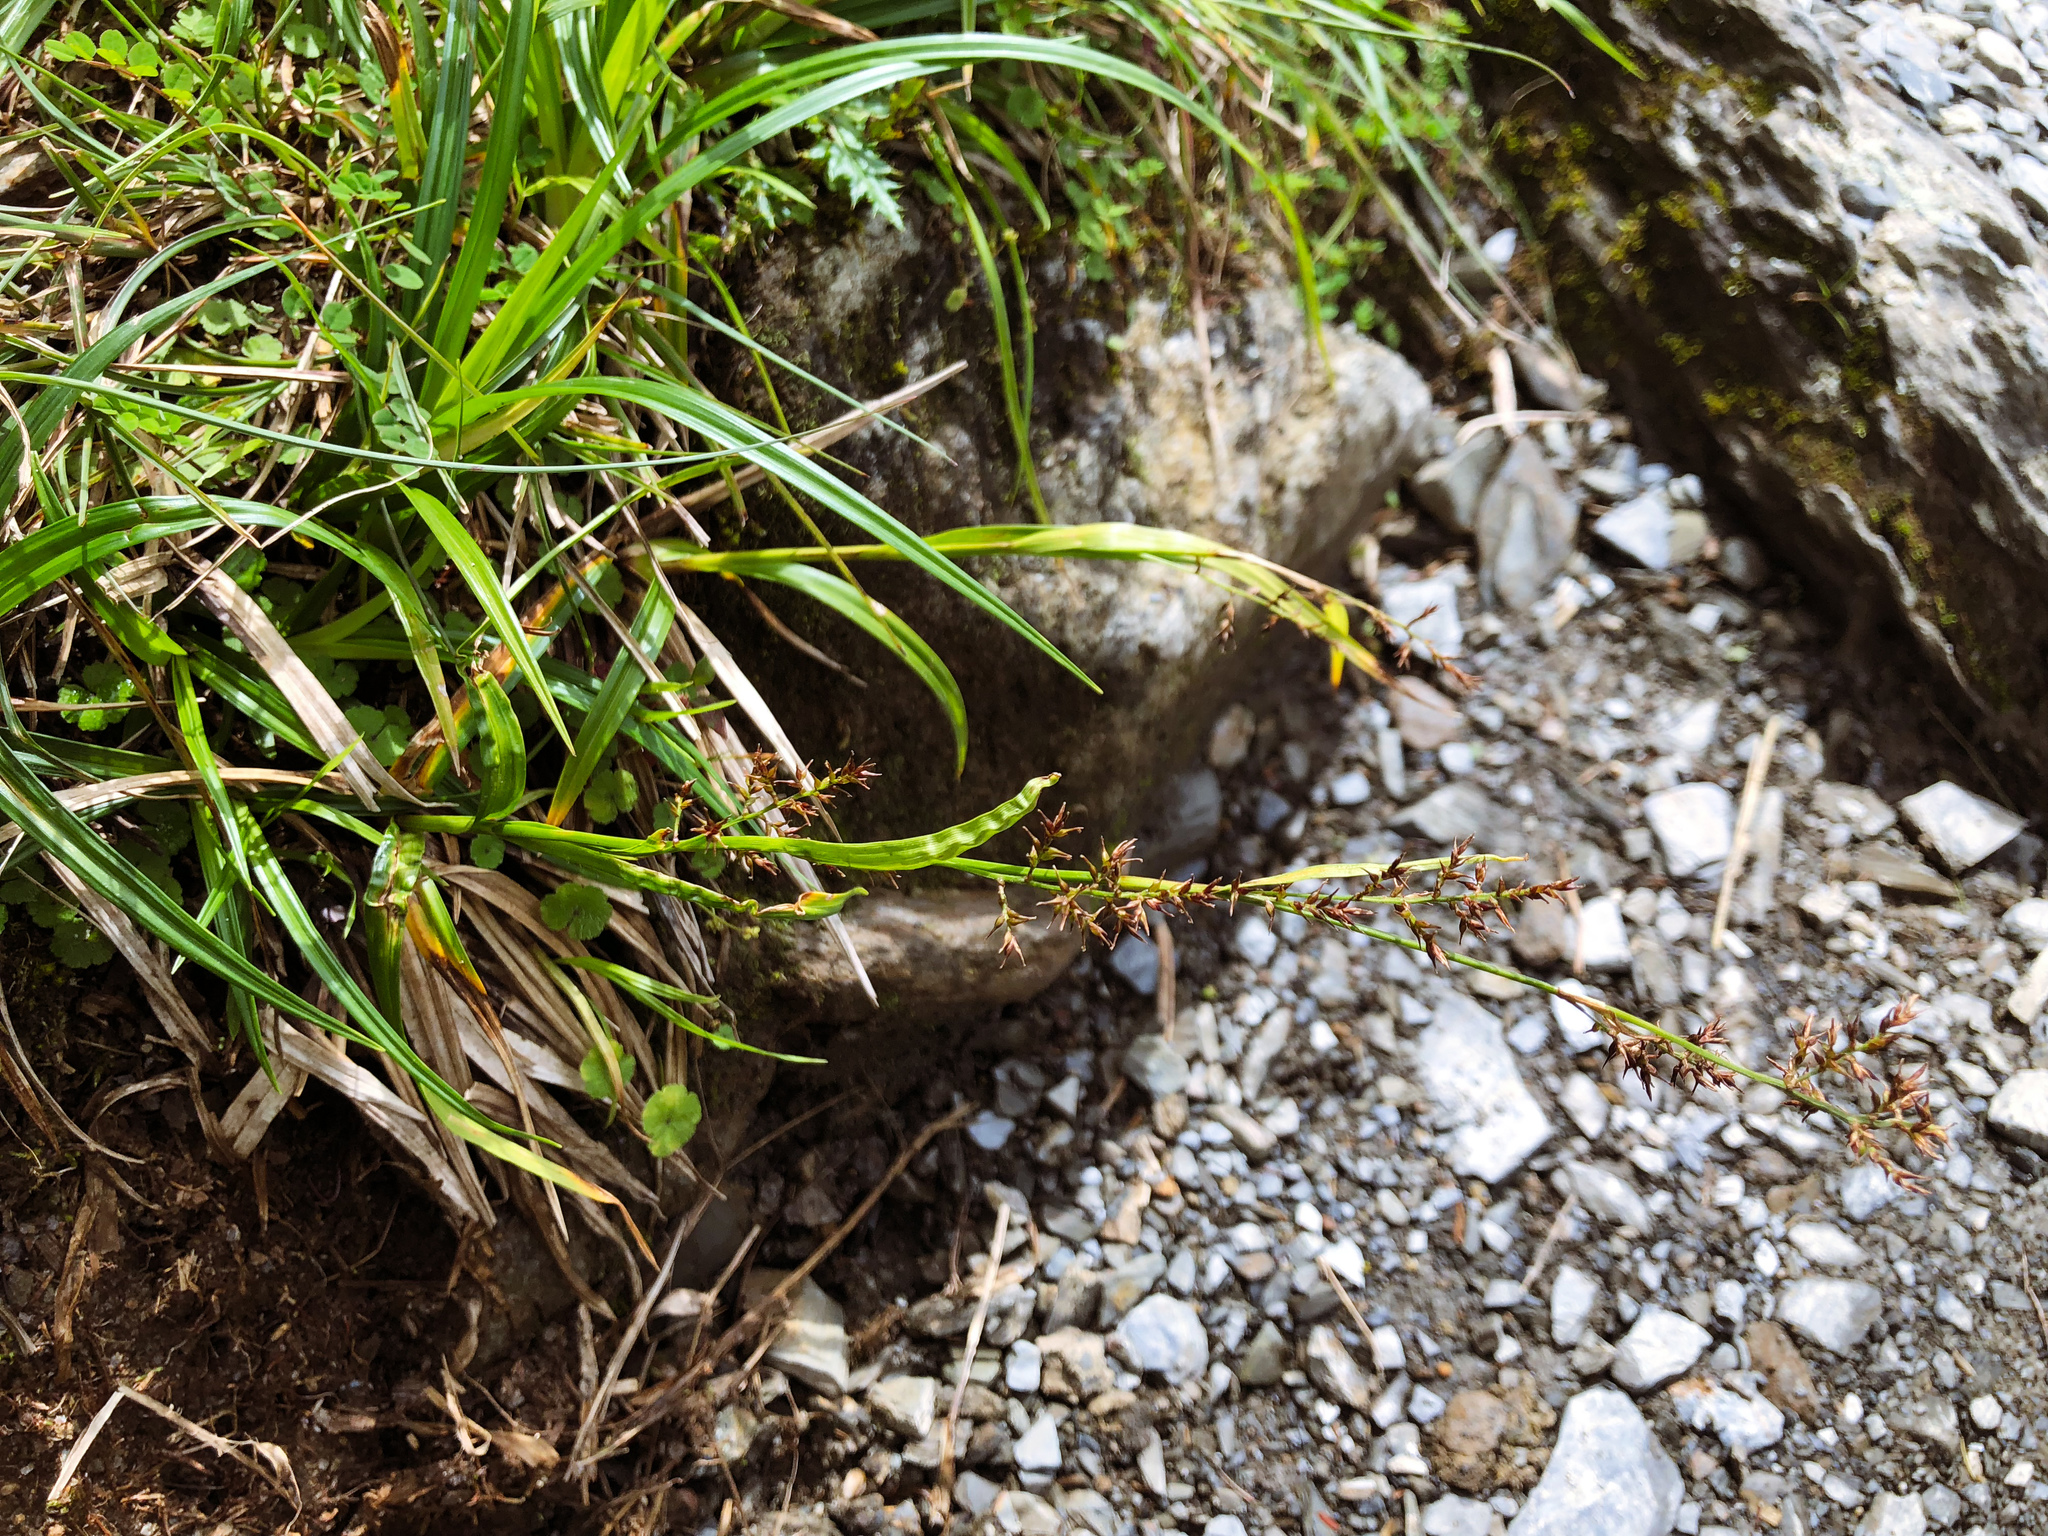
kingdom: Plantae
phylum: Tracheophyta
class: Liliopsida
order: Poales
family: Cyperaceae
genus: Carex
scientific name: Carex filicina
